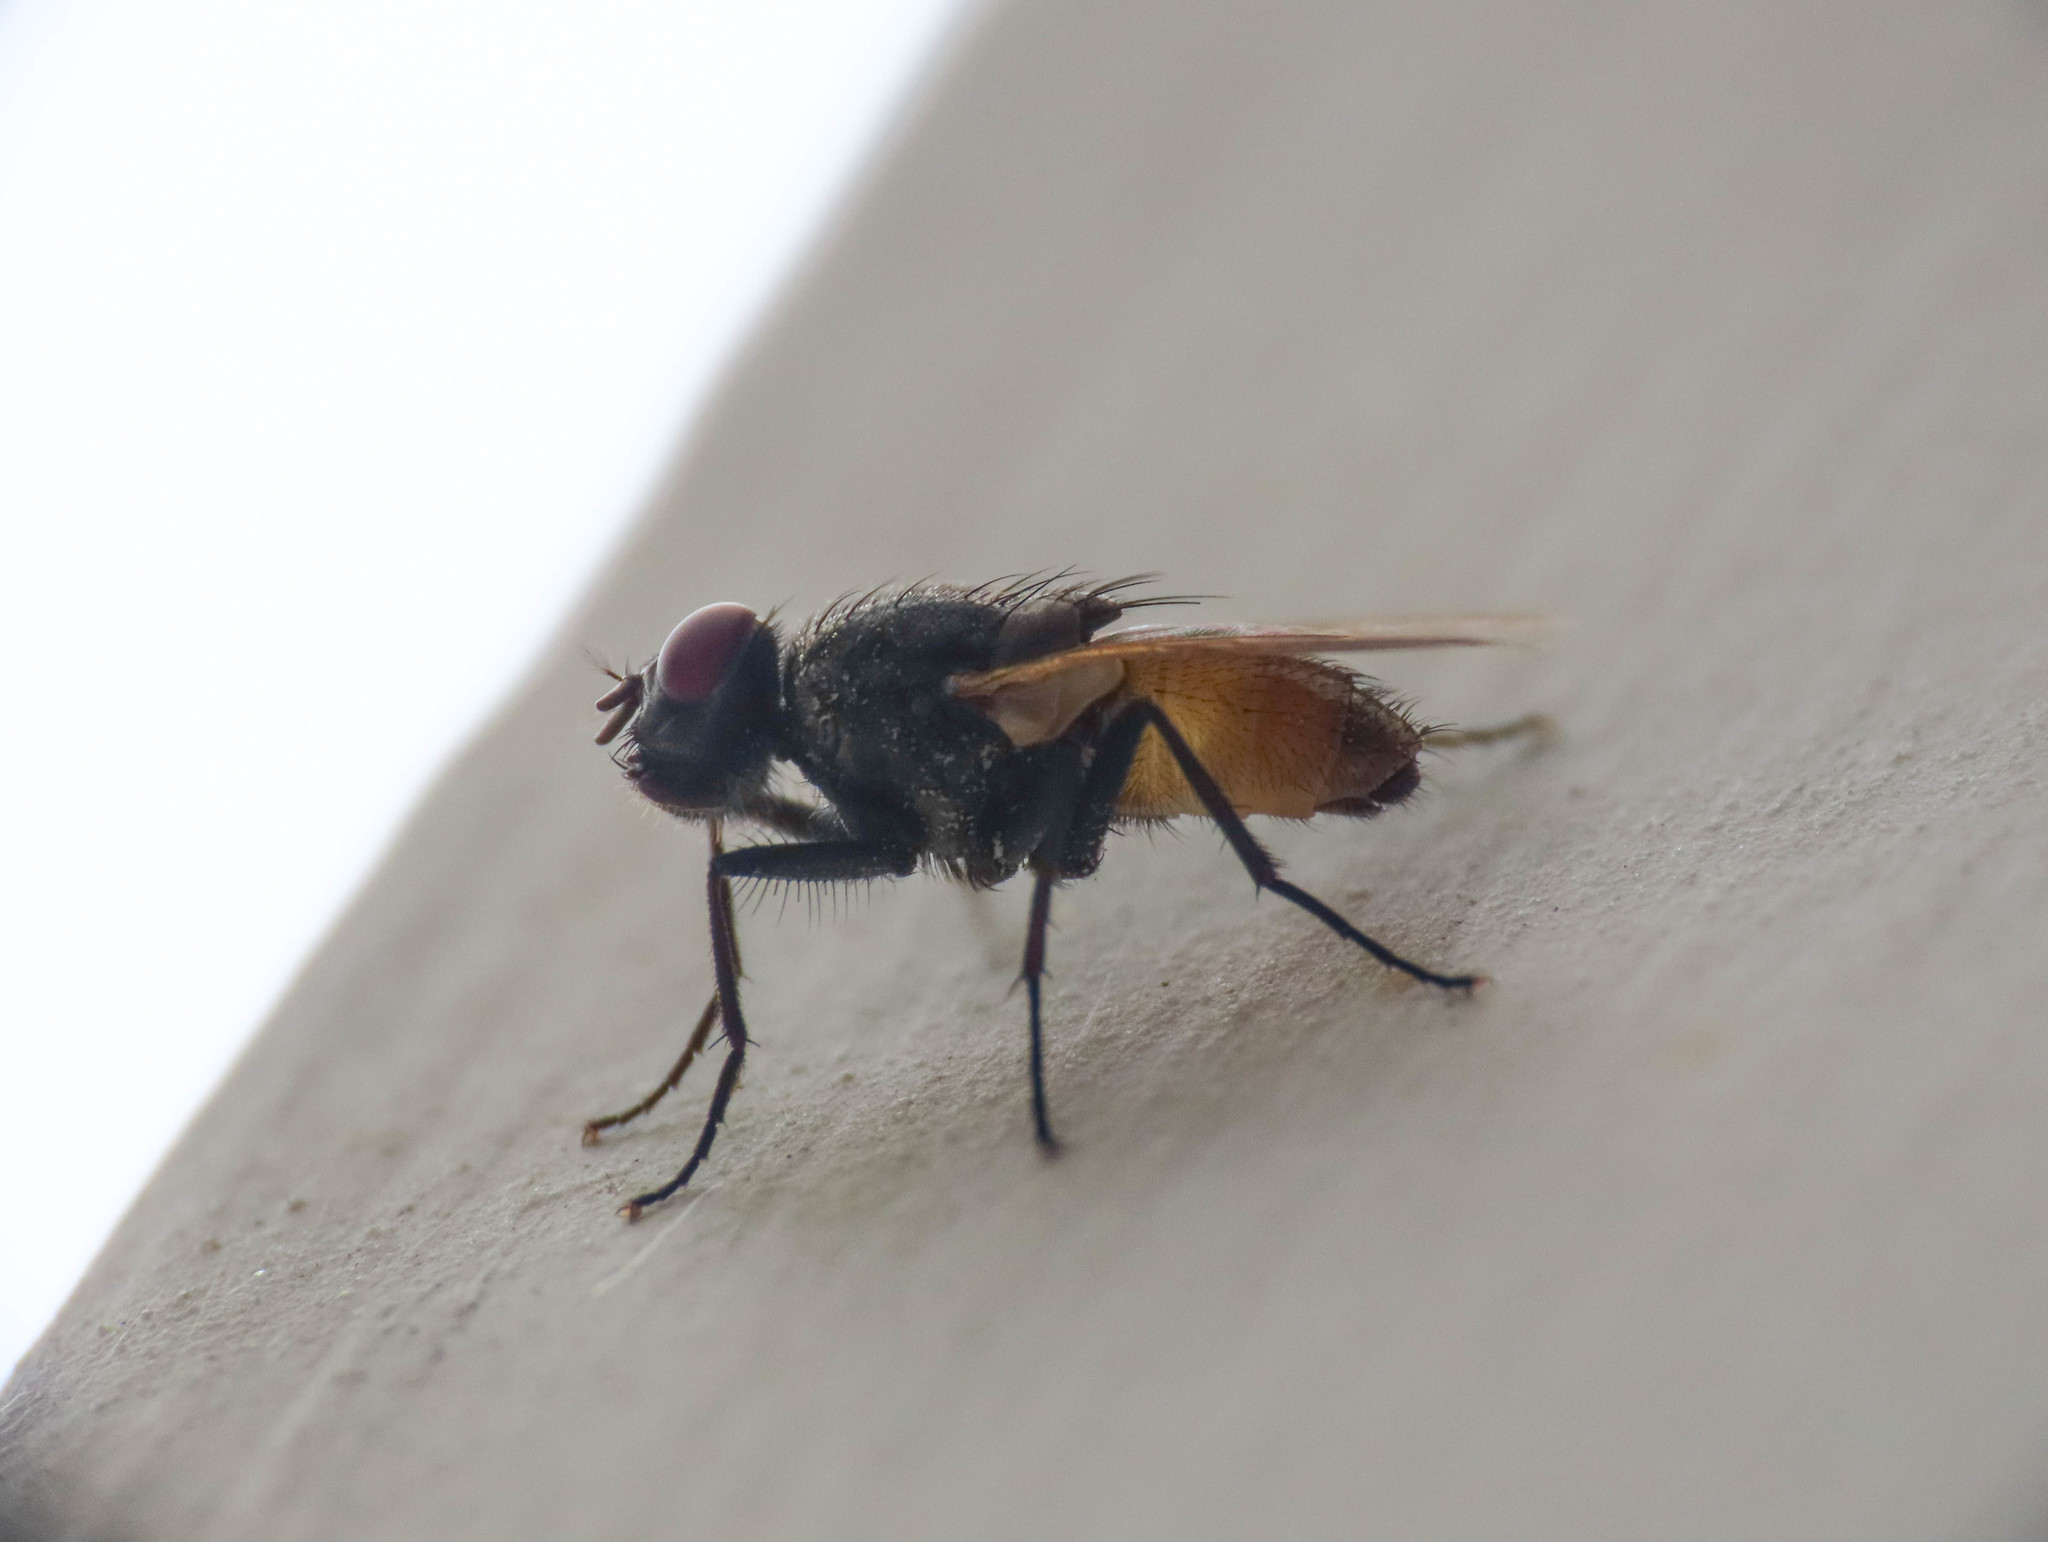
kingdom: Animalia
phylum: Arthropoda
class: Insecta
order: Diptera
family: Muscidae
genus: Musca
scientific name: Musca domestica
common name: House fly
